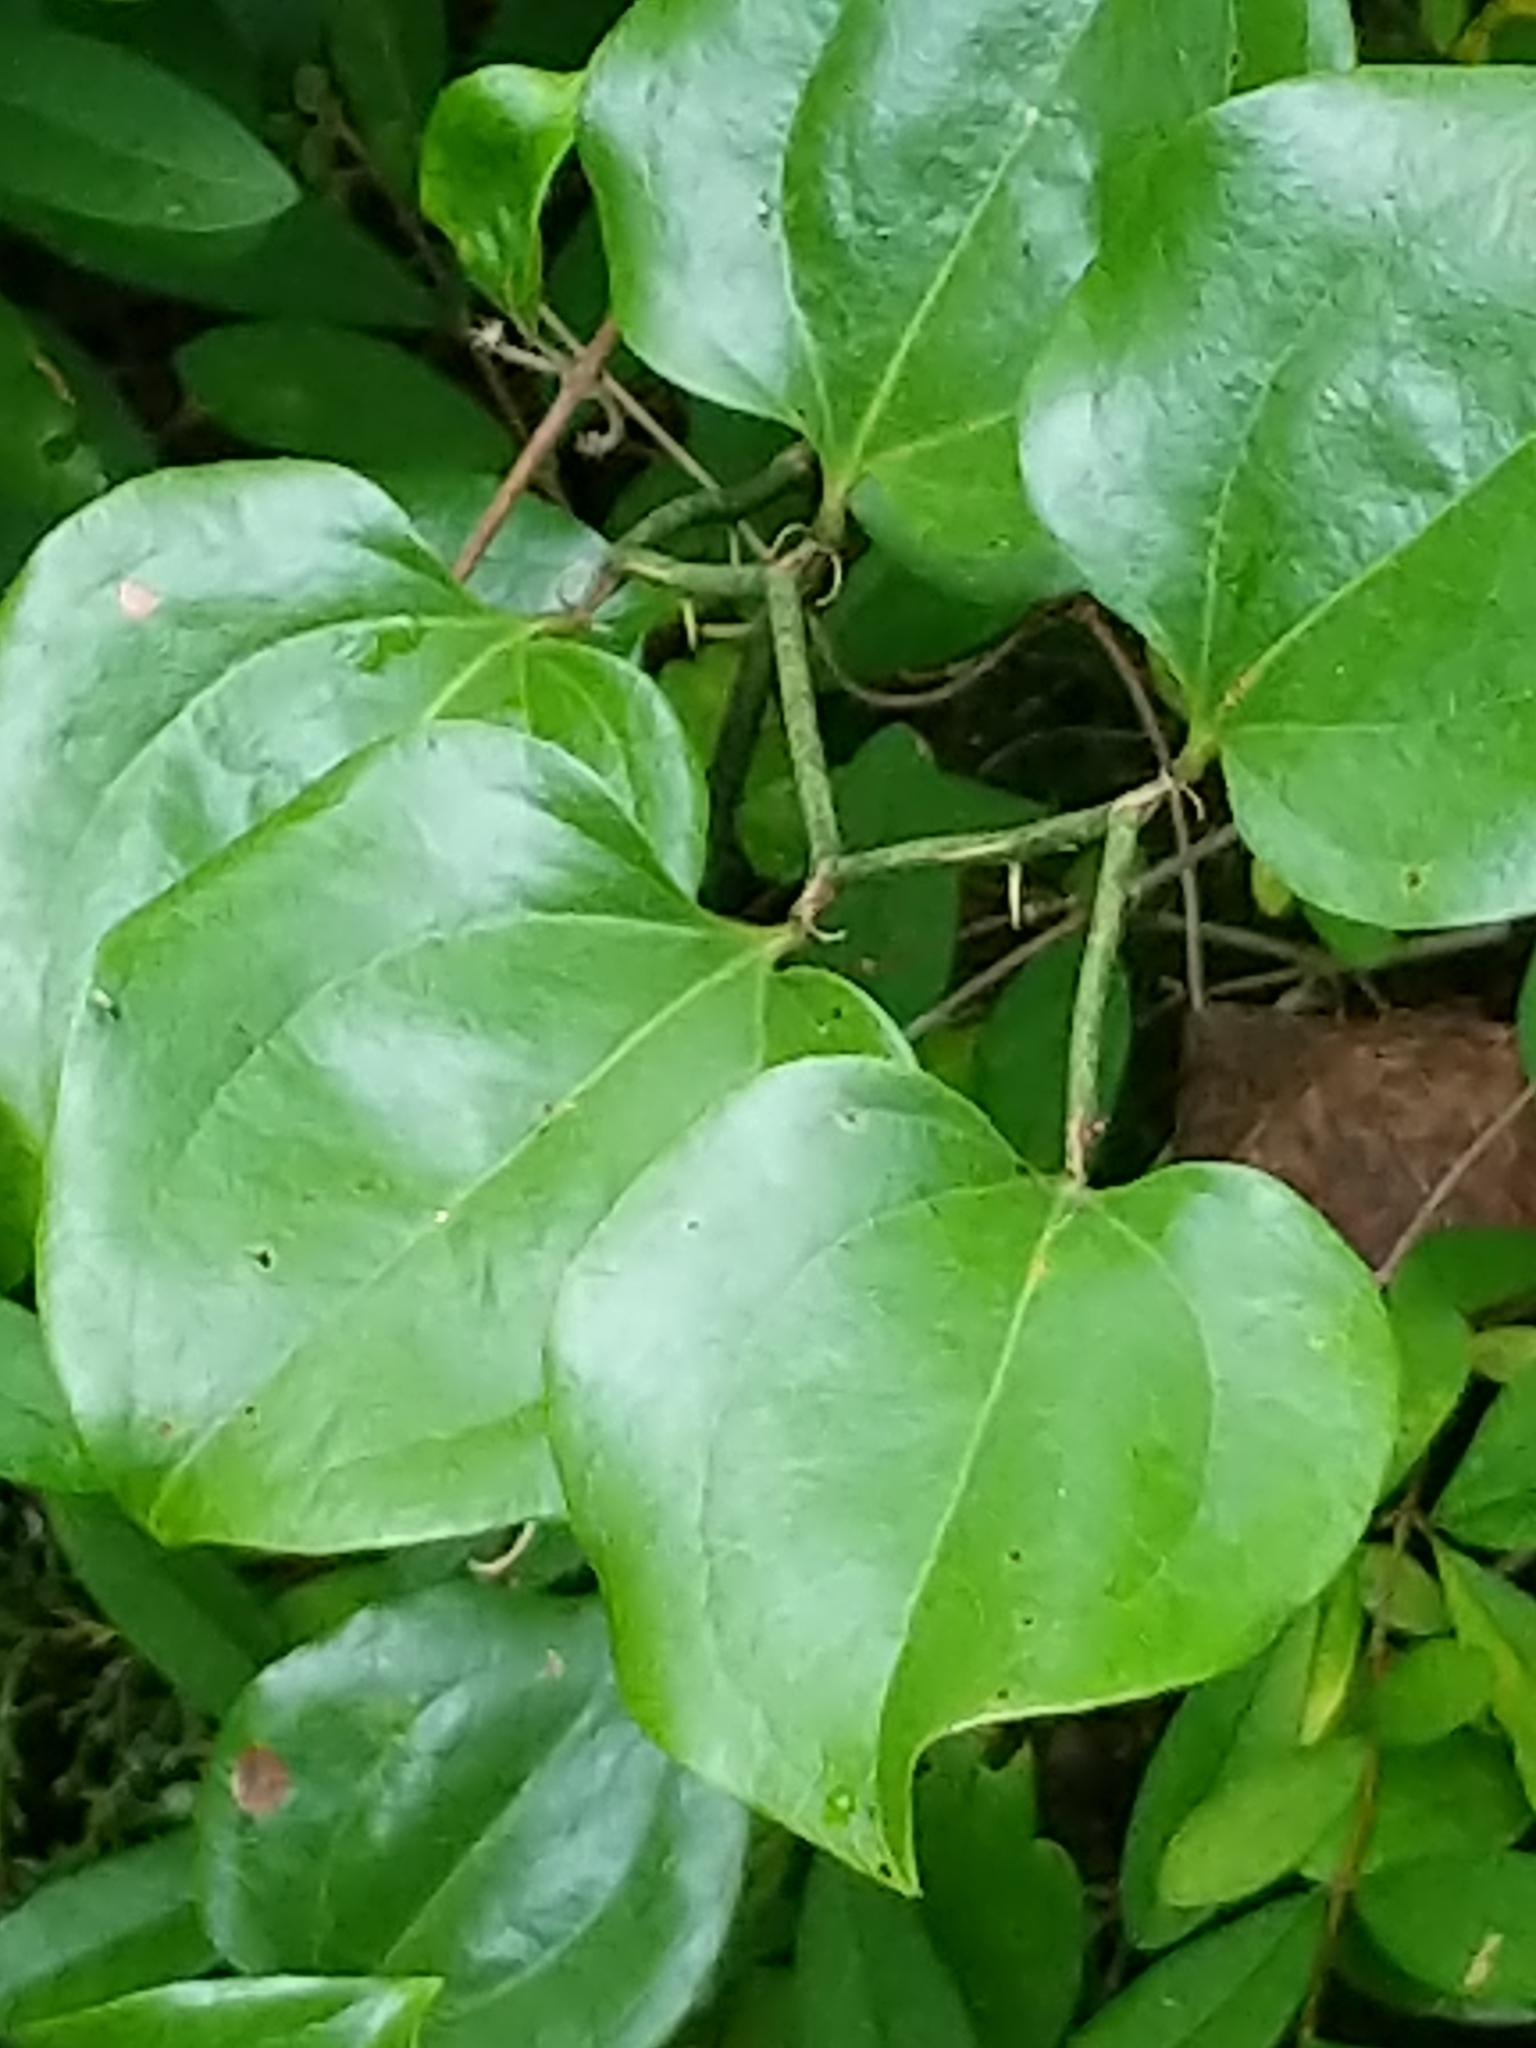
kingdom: Plantae
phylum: Tracheophyta
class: Liliopsida
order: Liliales
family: Smilacaceae
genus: Smilax
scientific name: Smilax rotundifolia
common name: Bullbriar
